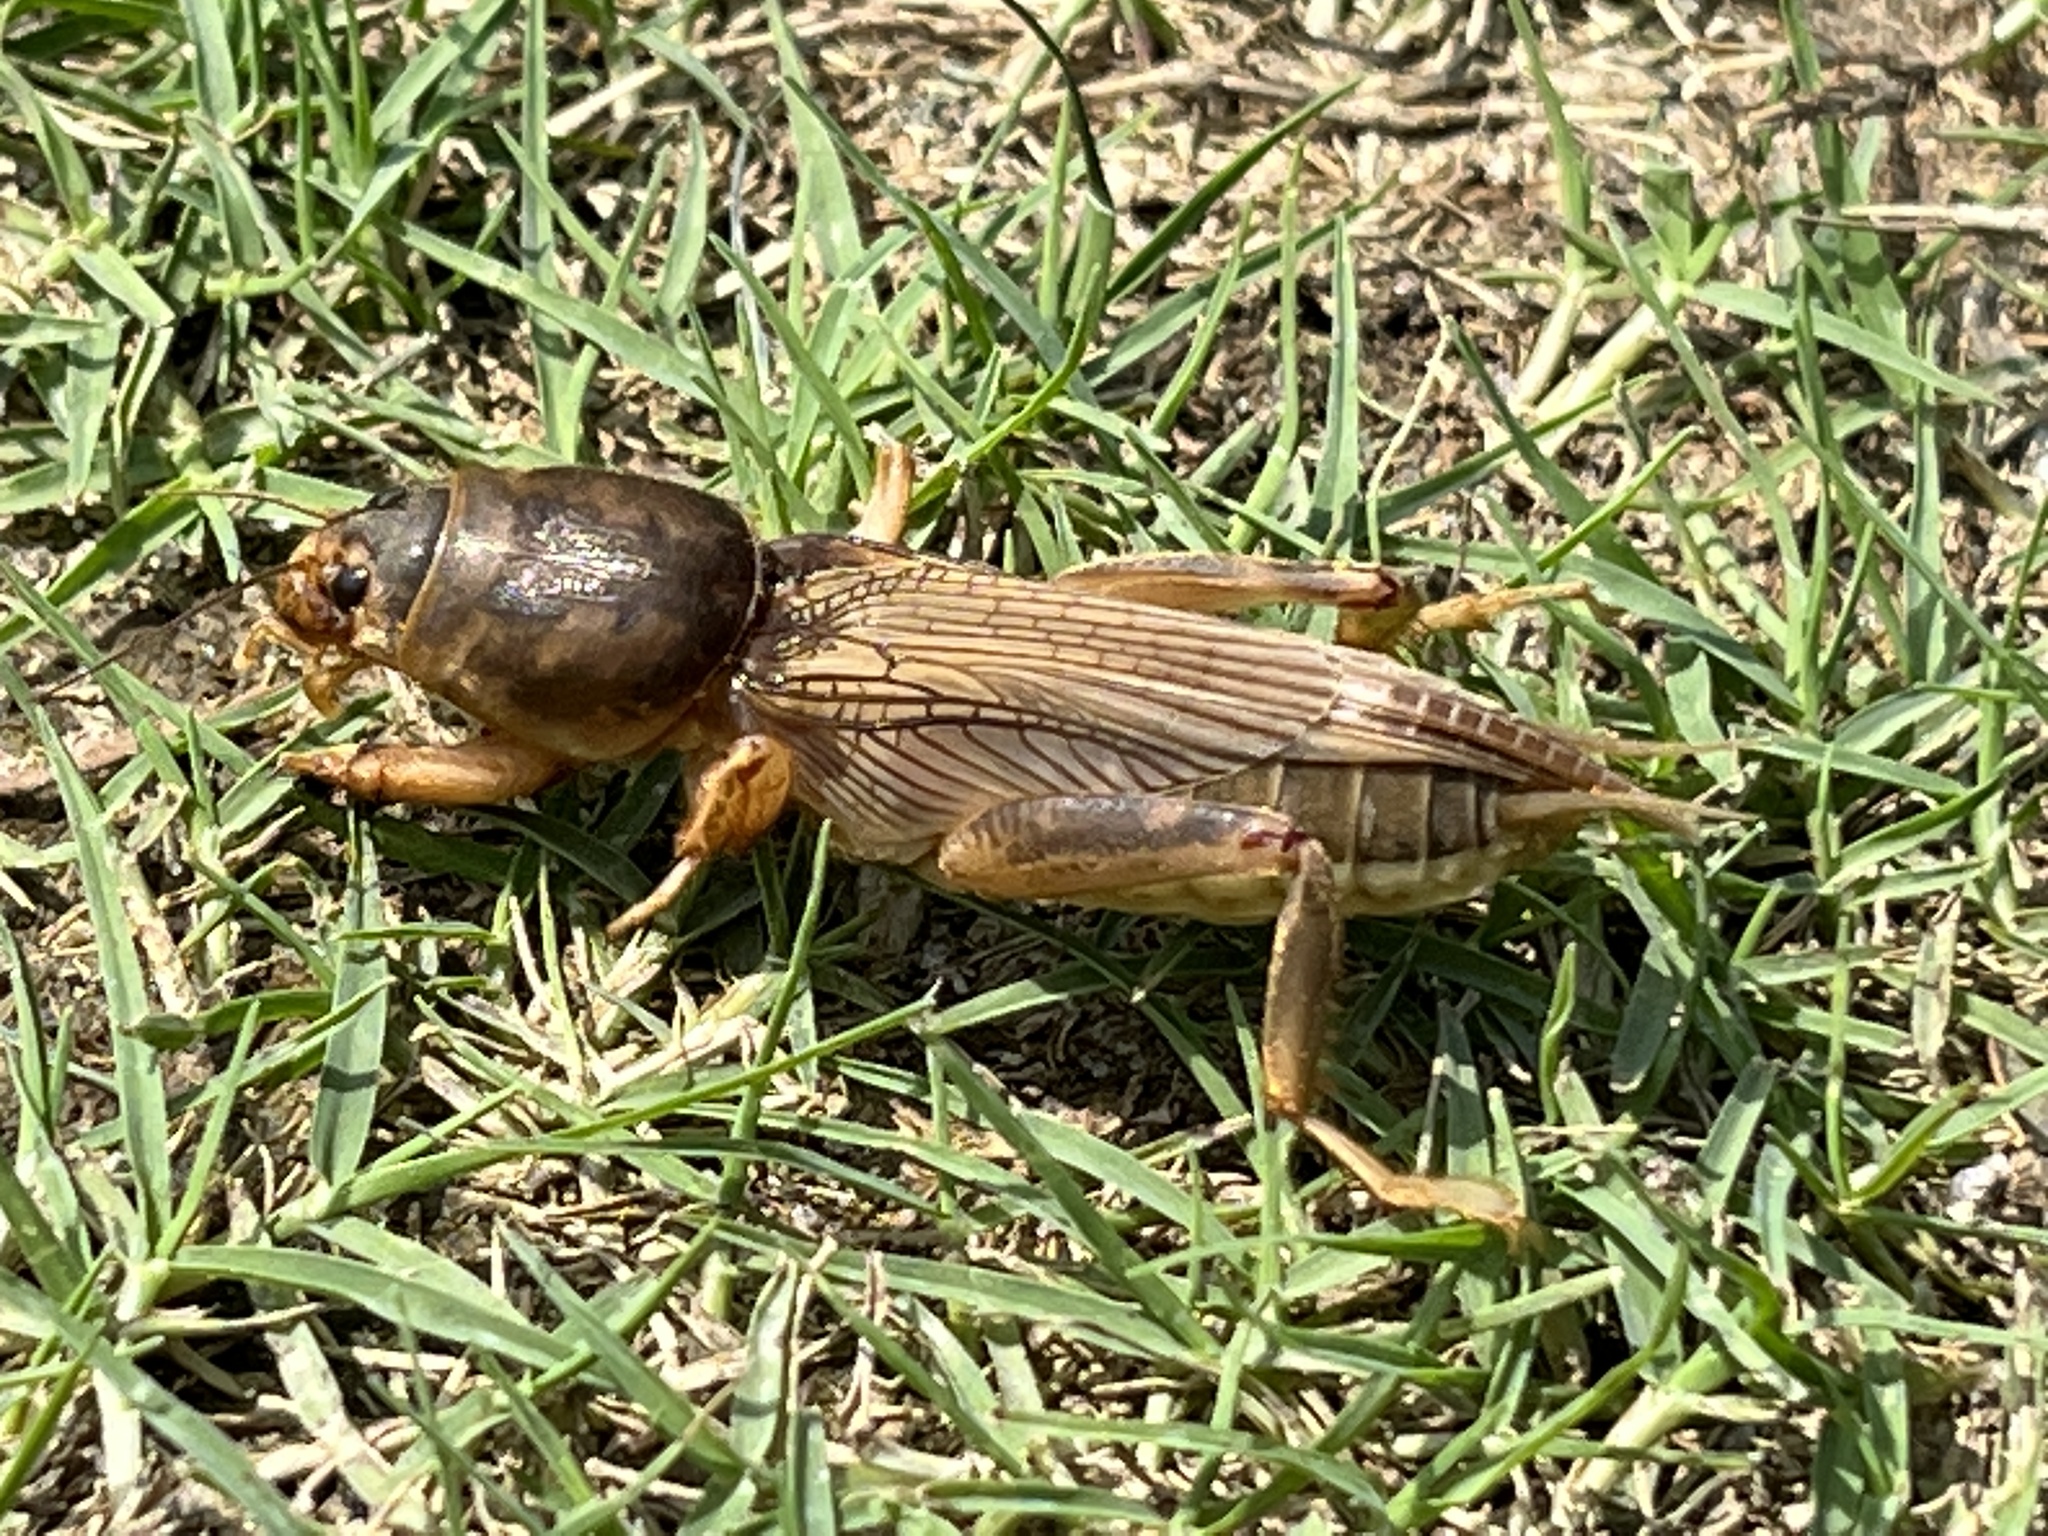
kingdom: Animalia
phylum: Arthropoda
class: Insecta
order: Orthoptera
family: Gryllotalpidae
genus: Neoscapteriscus
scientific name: Neoscapteriscus vicinus
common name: Tawny mole cricket
